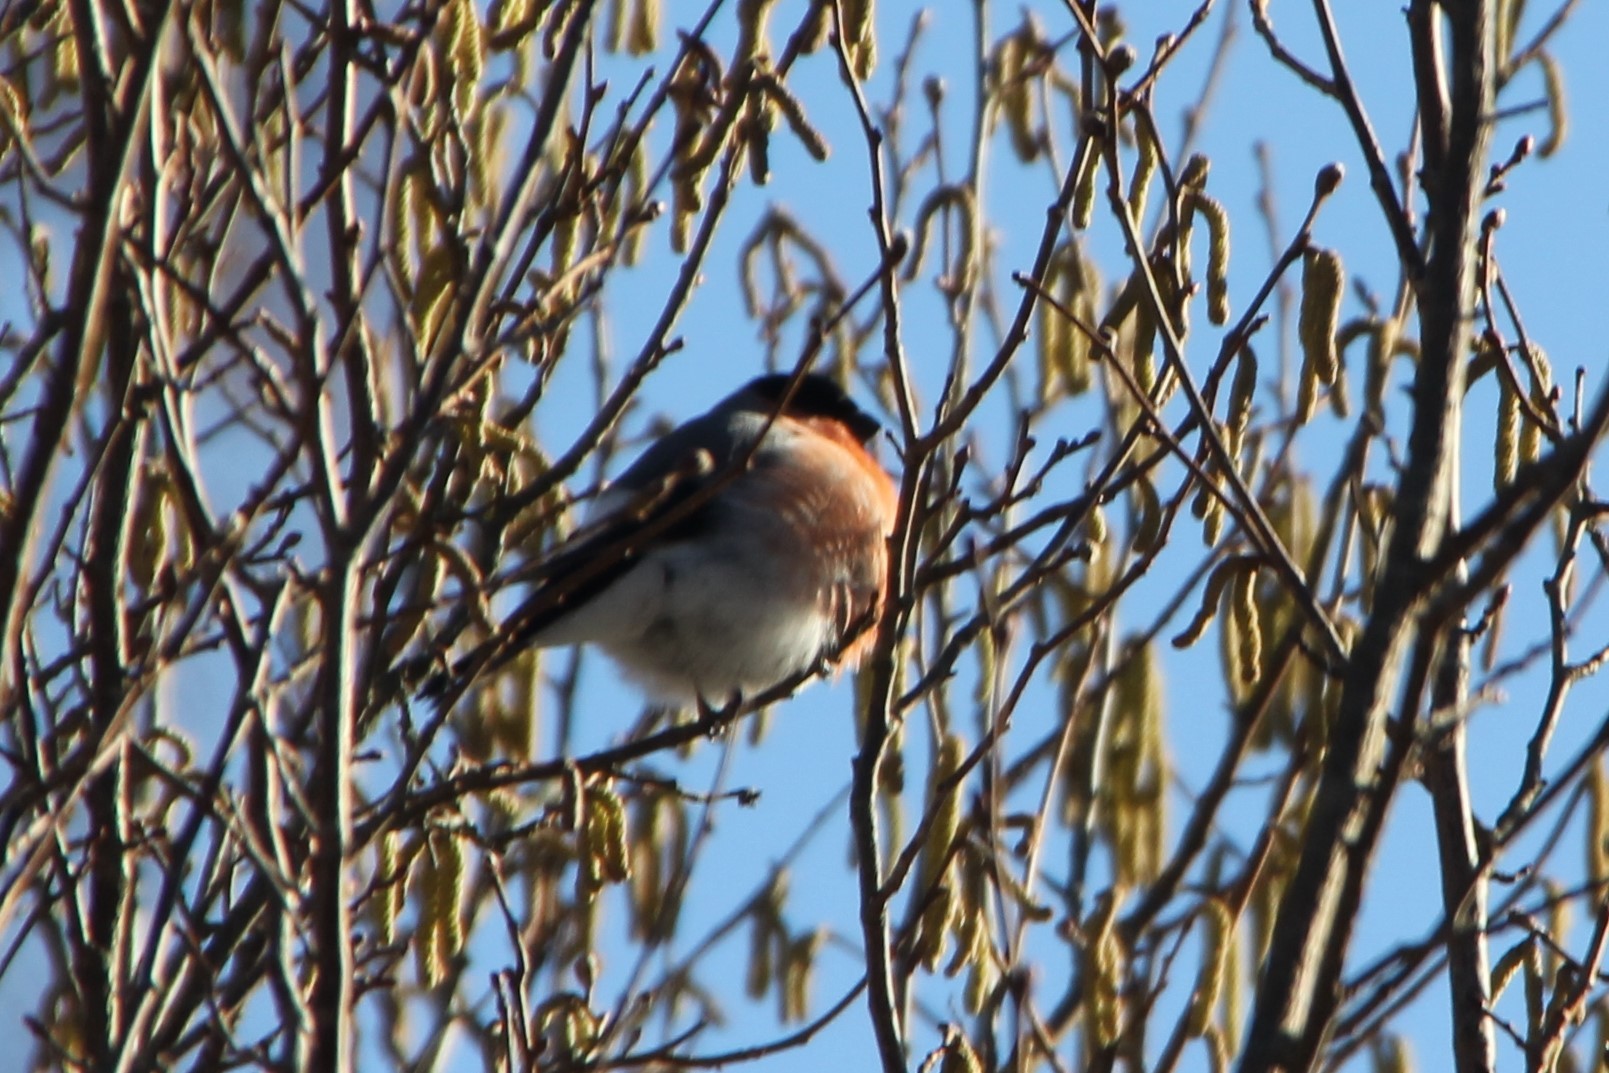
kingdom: Animalia
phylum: Chordata
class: Aves
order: Passeriformes
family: Fringillidae
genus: Pyrrhula
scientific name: Pyrrhula pyrrhula
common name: Eurasian bullfinch
